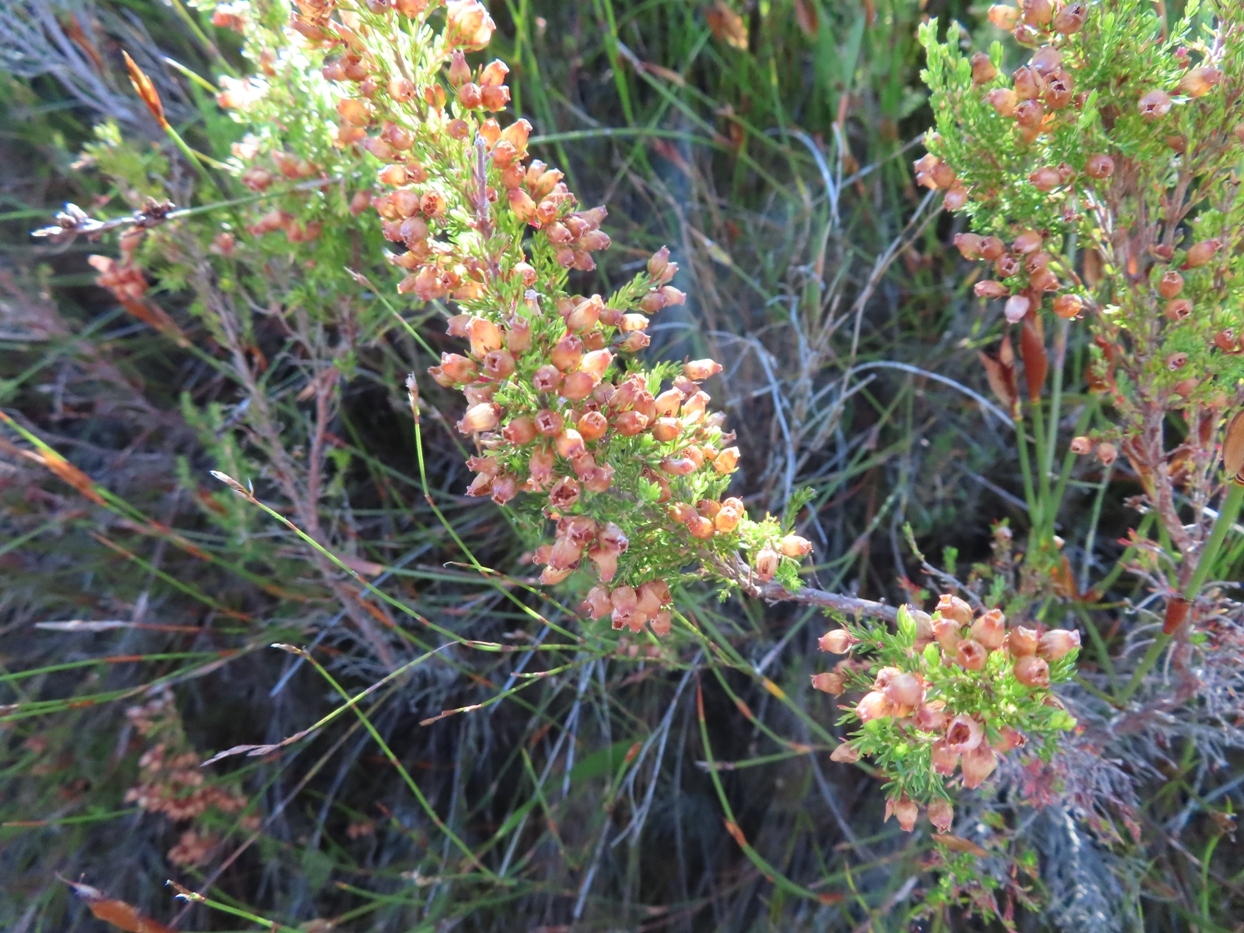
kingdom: Plantae
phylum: Tracheophyta
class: Magnoliopsida
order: Ericales
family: Ericaceae
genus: Erica
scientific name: Erica sitiens
